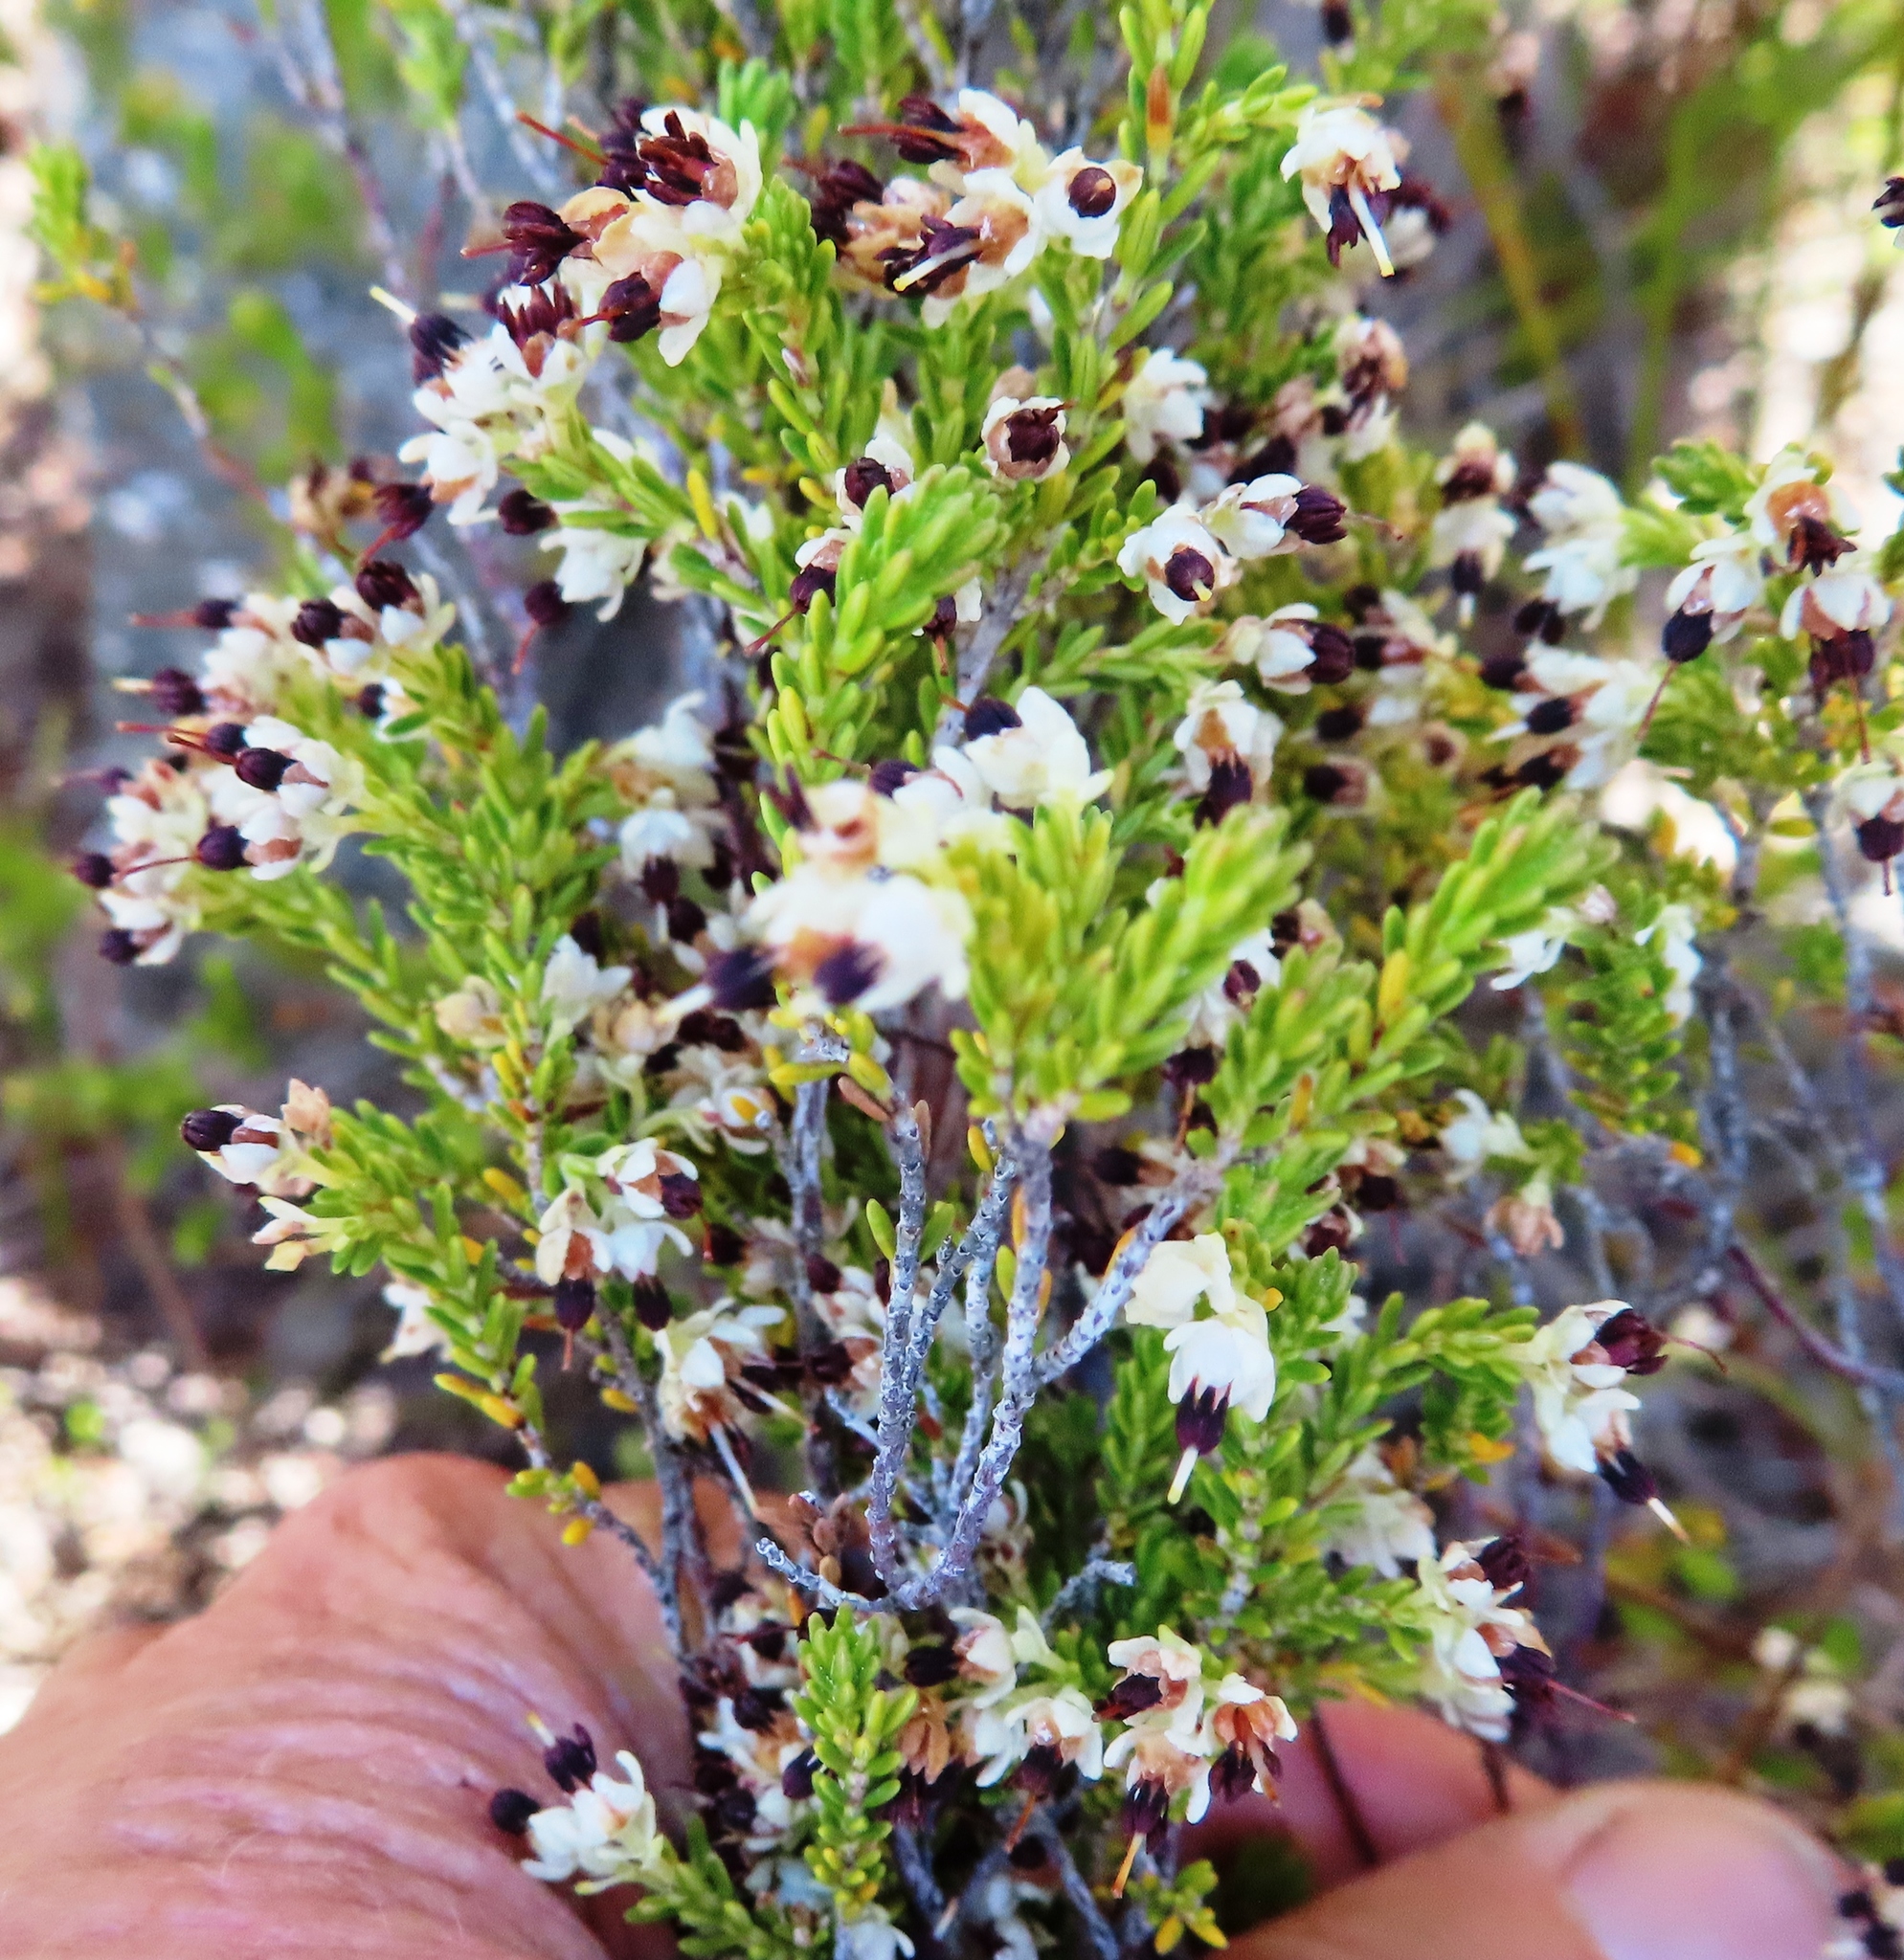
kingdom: Plantae
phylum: Tracheophyta
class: Magnoliopsida
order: Ericales
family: Ericaceae
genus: Erica
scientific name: Erica suffulta
